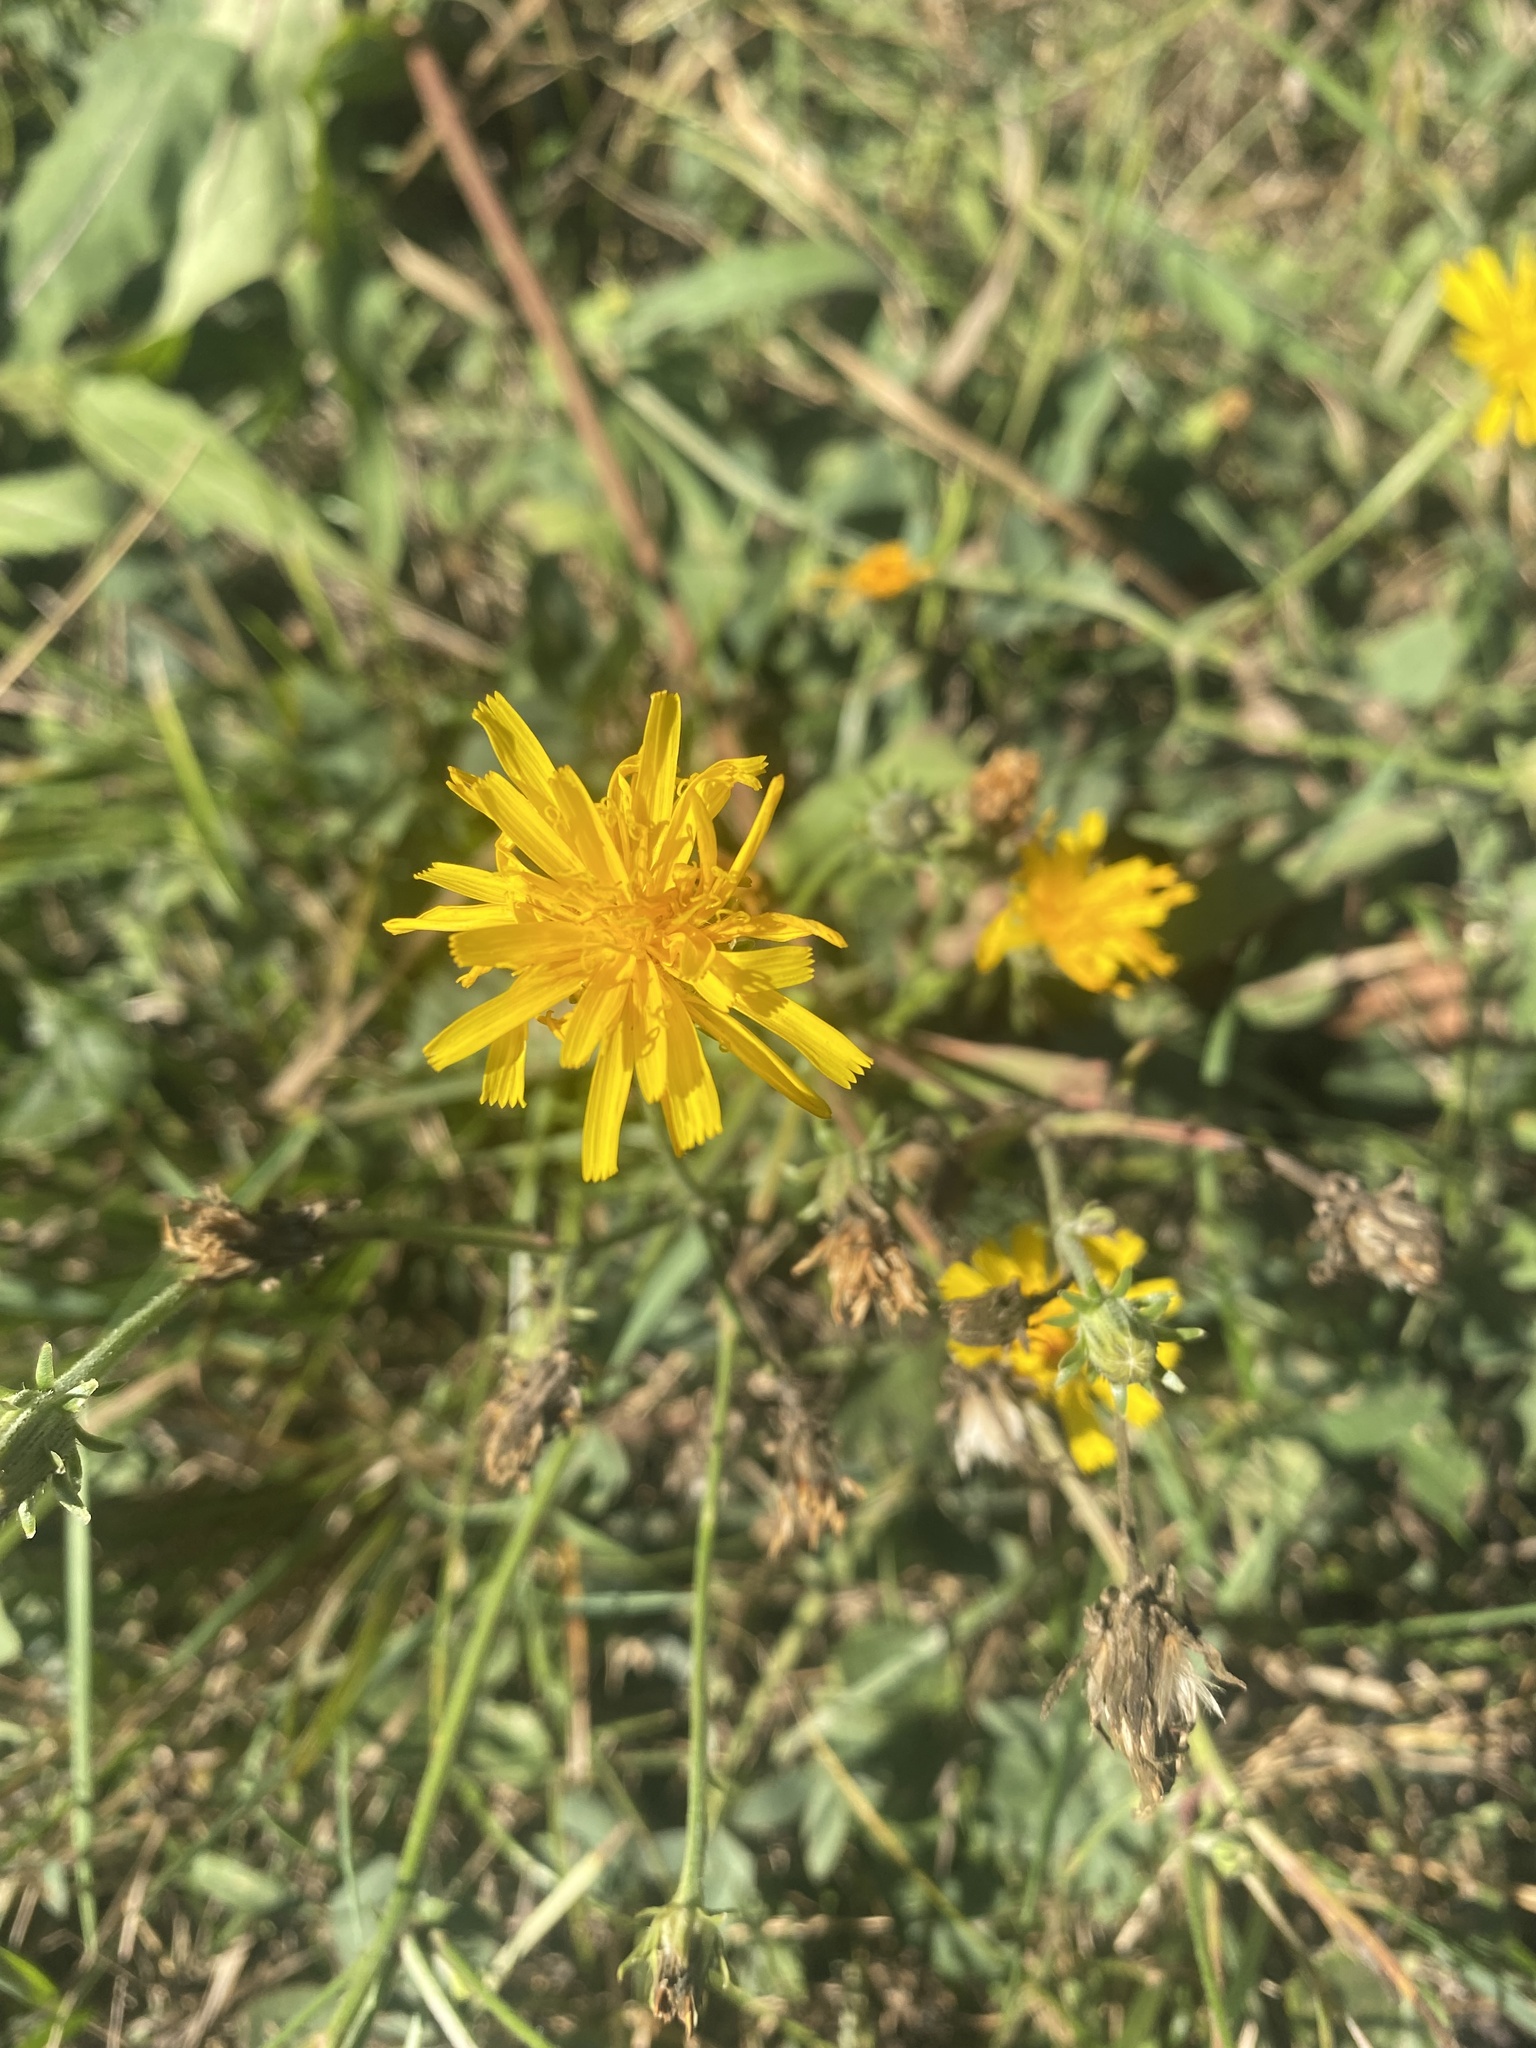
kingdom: Plantae
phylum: Tracheophyta
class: Magnoliopsida
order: Asterales
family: Asteraceae
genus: Picris
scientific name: Picris hieracioides
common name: Hawkweed oxtongue
